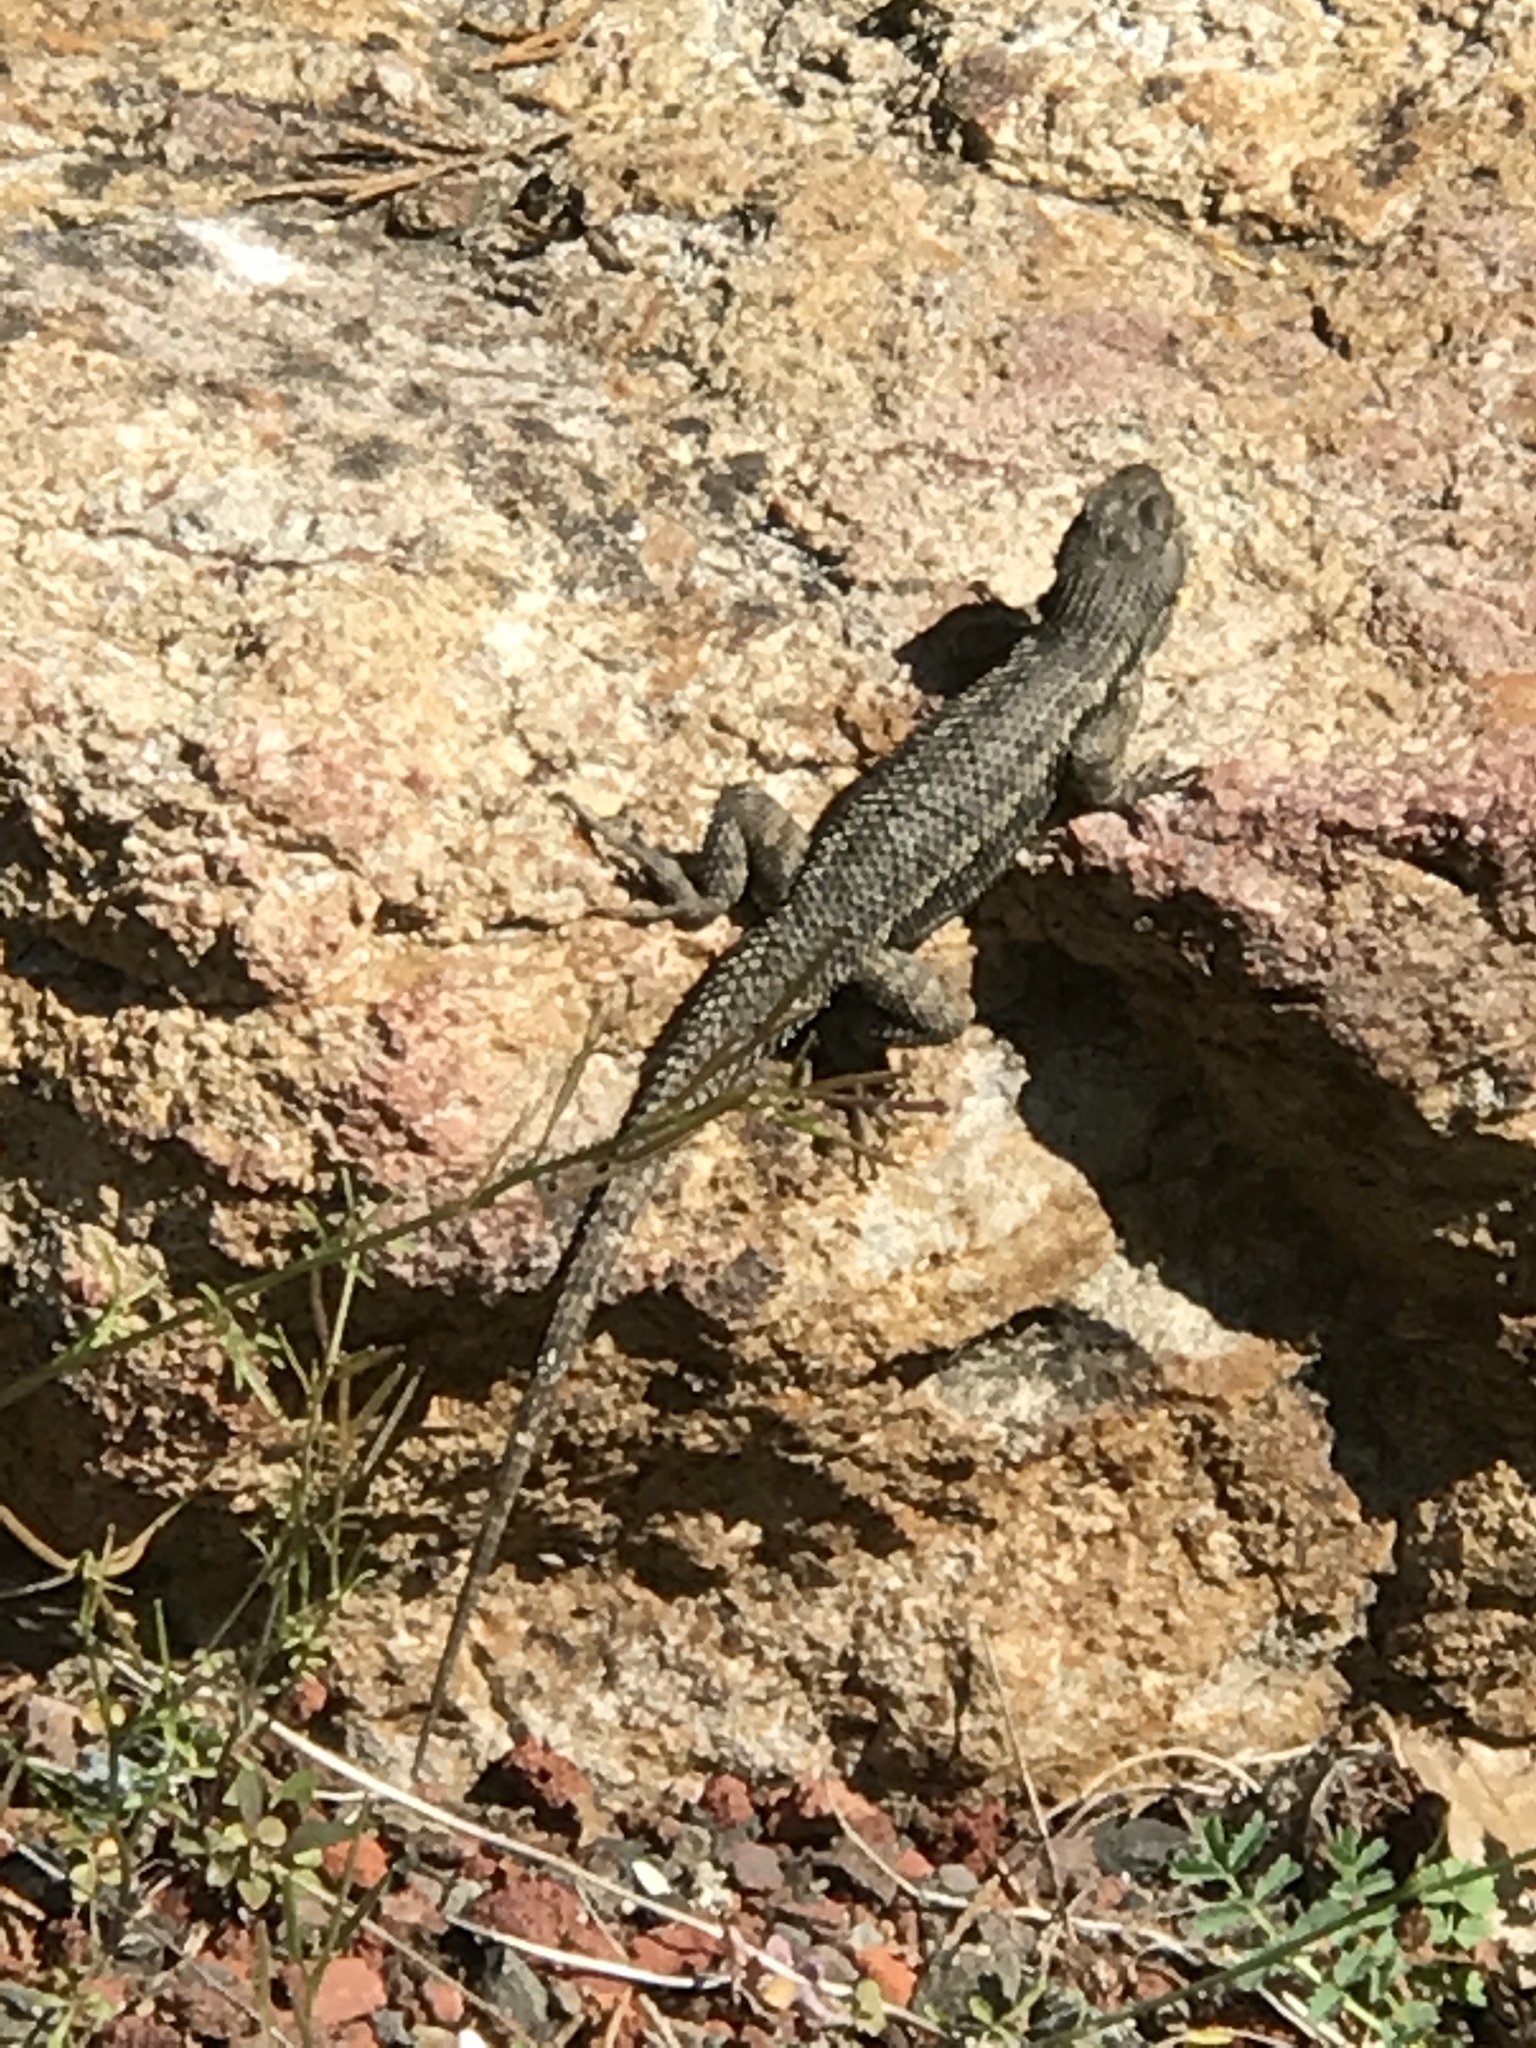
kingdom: Animalia
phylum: Chordata
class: Squamata
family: Phrynosomatidae
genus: Sceloporus
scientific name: Sceloporus occidentalis
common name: Western fence lizard
